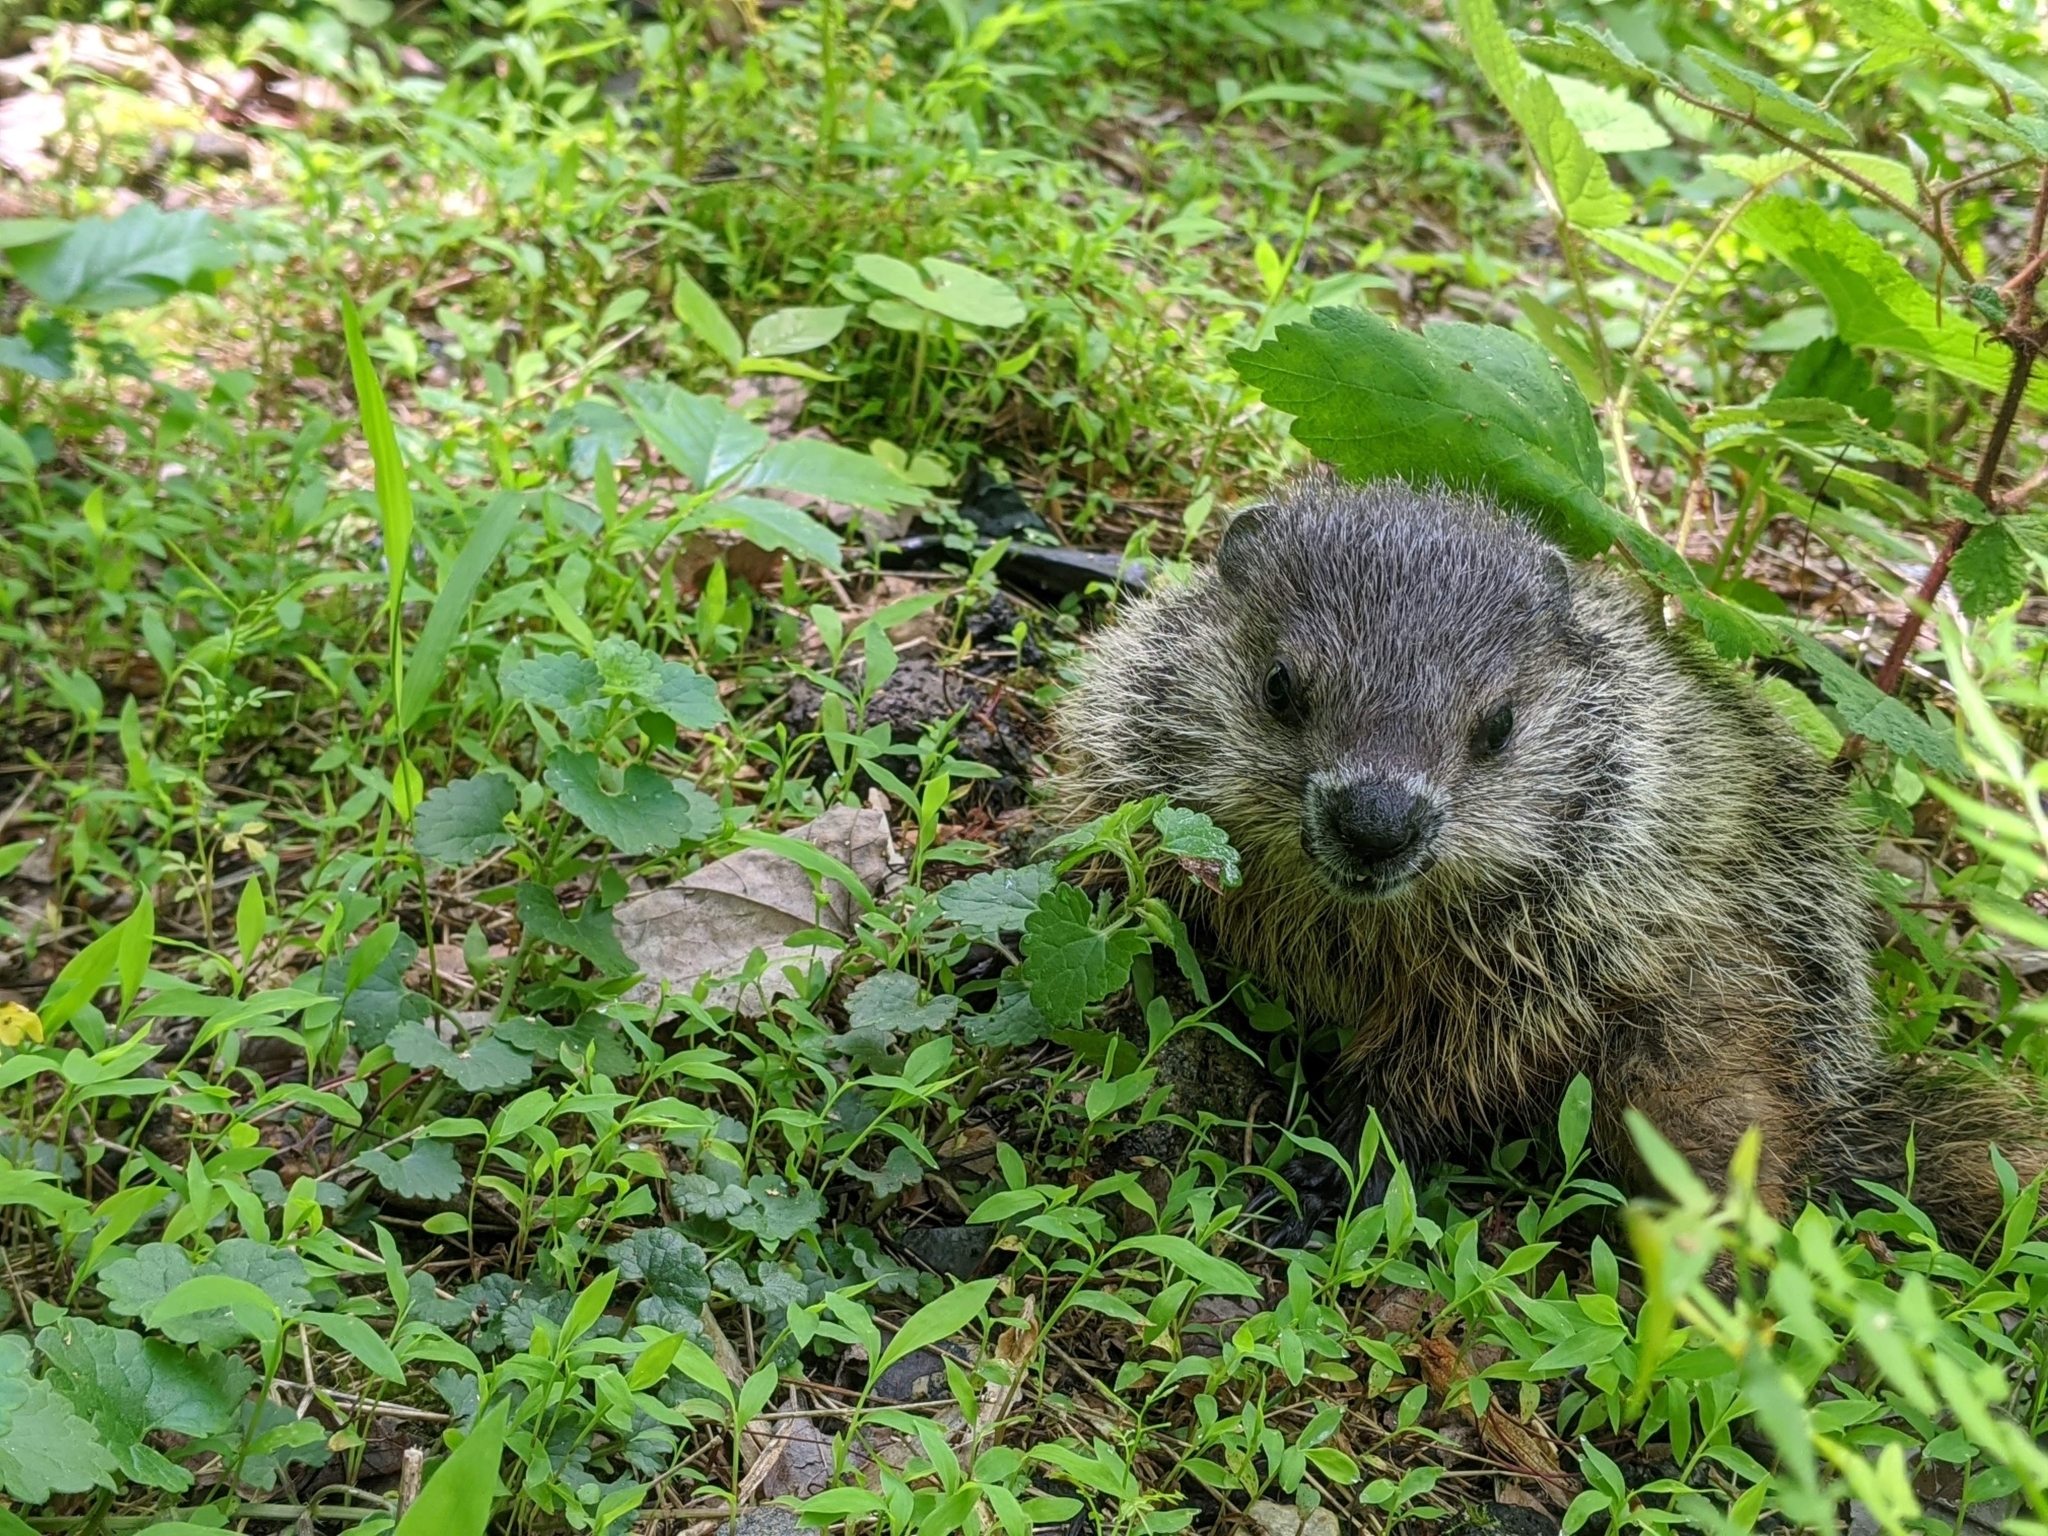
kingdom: Animalia
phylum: Chordata
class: Mammalia
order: Rodentia
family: Sciuridae
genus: Marmota
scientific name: Marmota monax
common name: Groundhog
